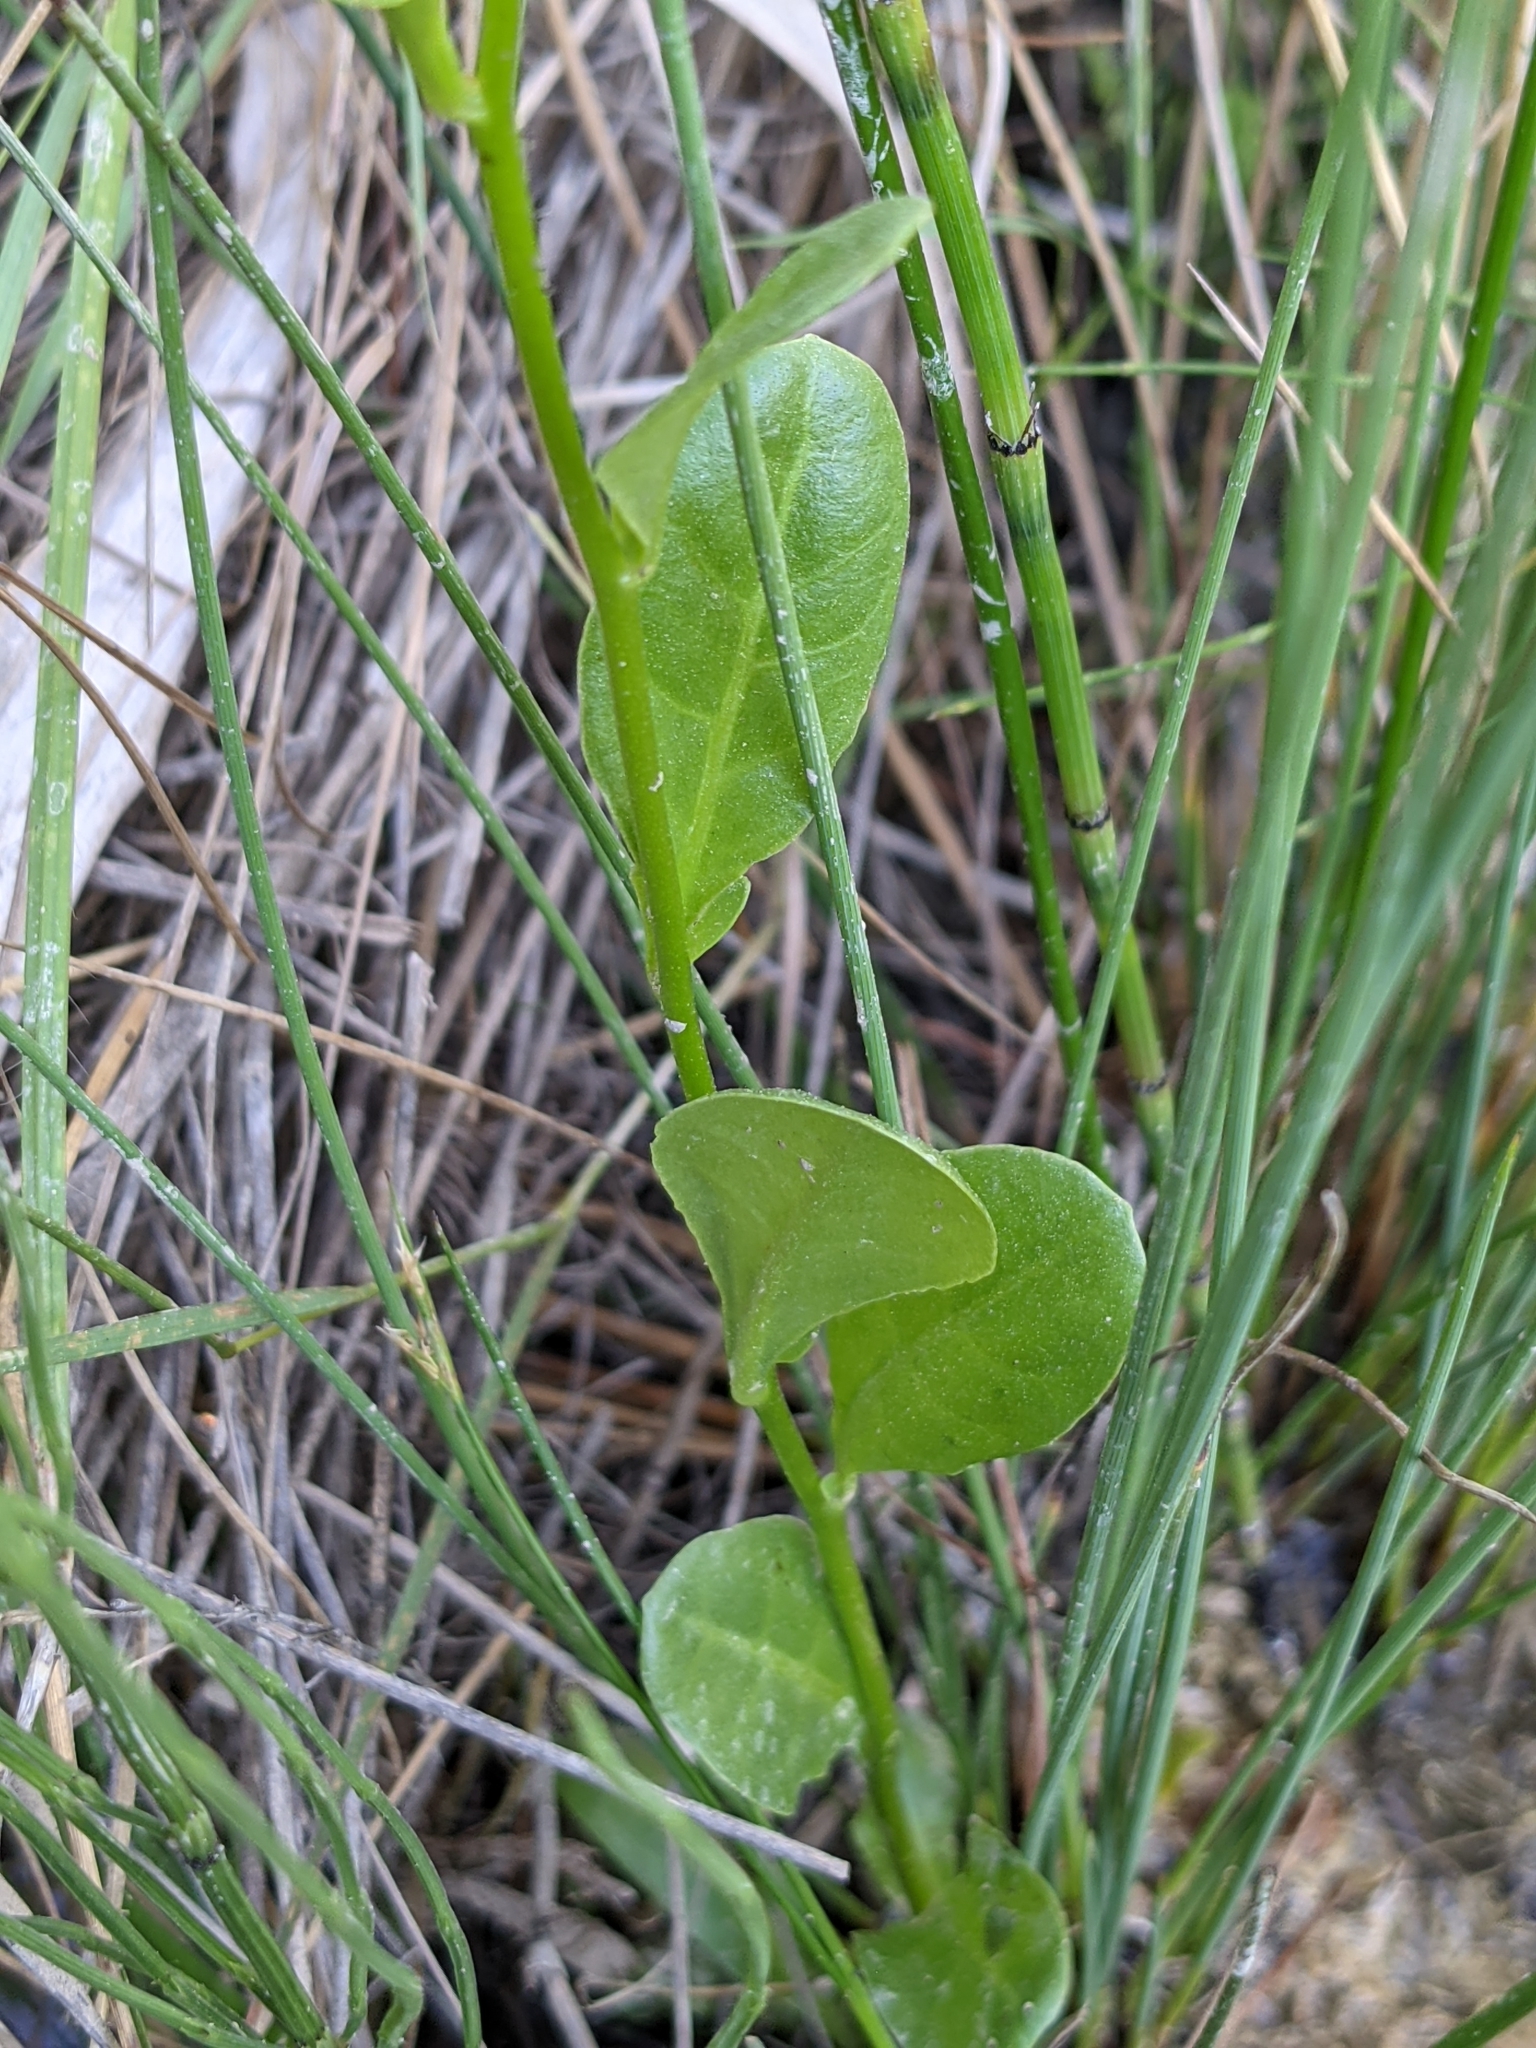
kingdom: Plantae
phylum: Tracheophyta
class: Magnoliopsida
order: Ericales
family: Primulaceae
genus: Samolus
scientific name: Samolus valerandi
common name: Brookweed
